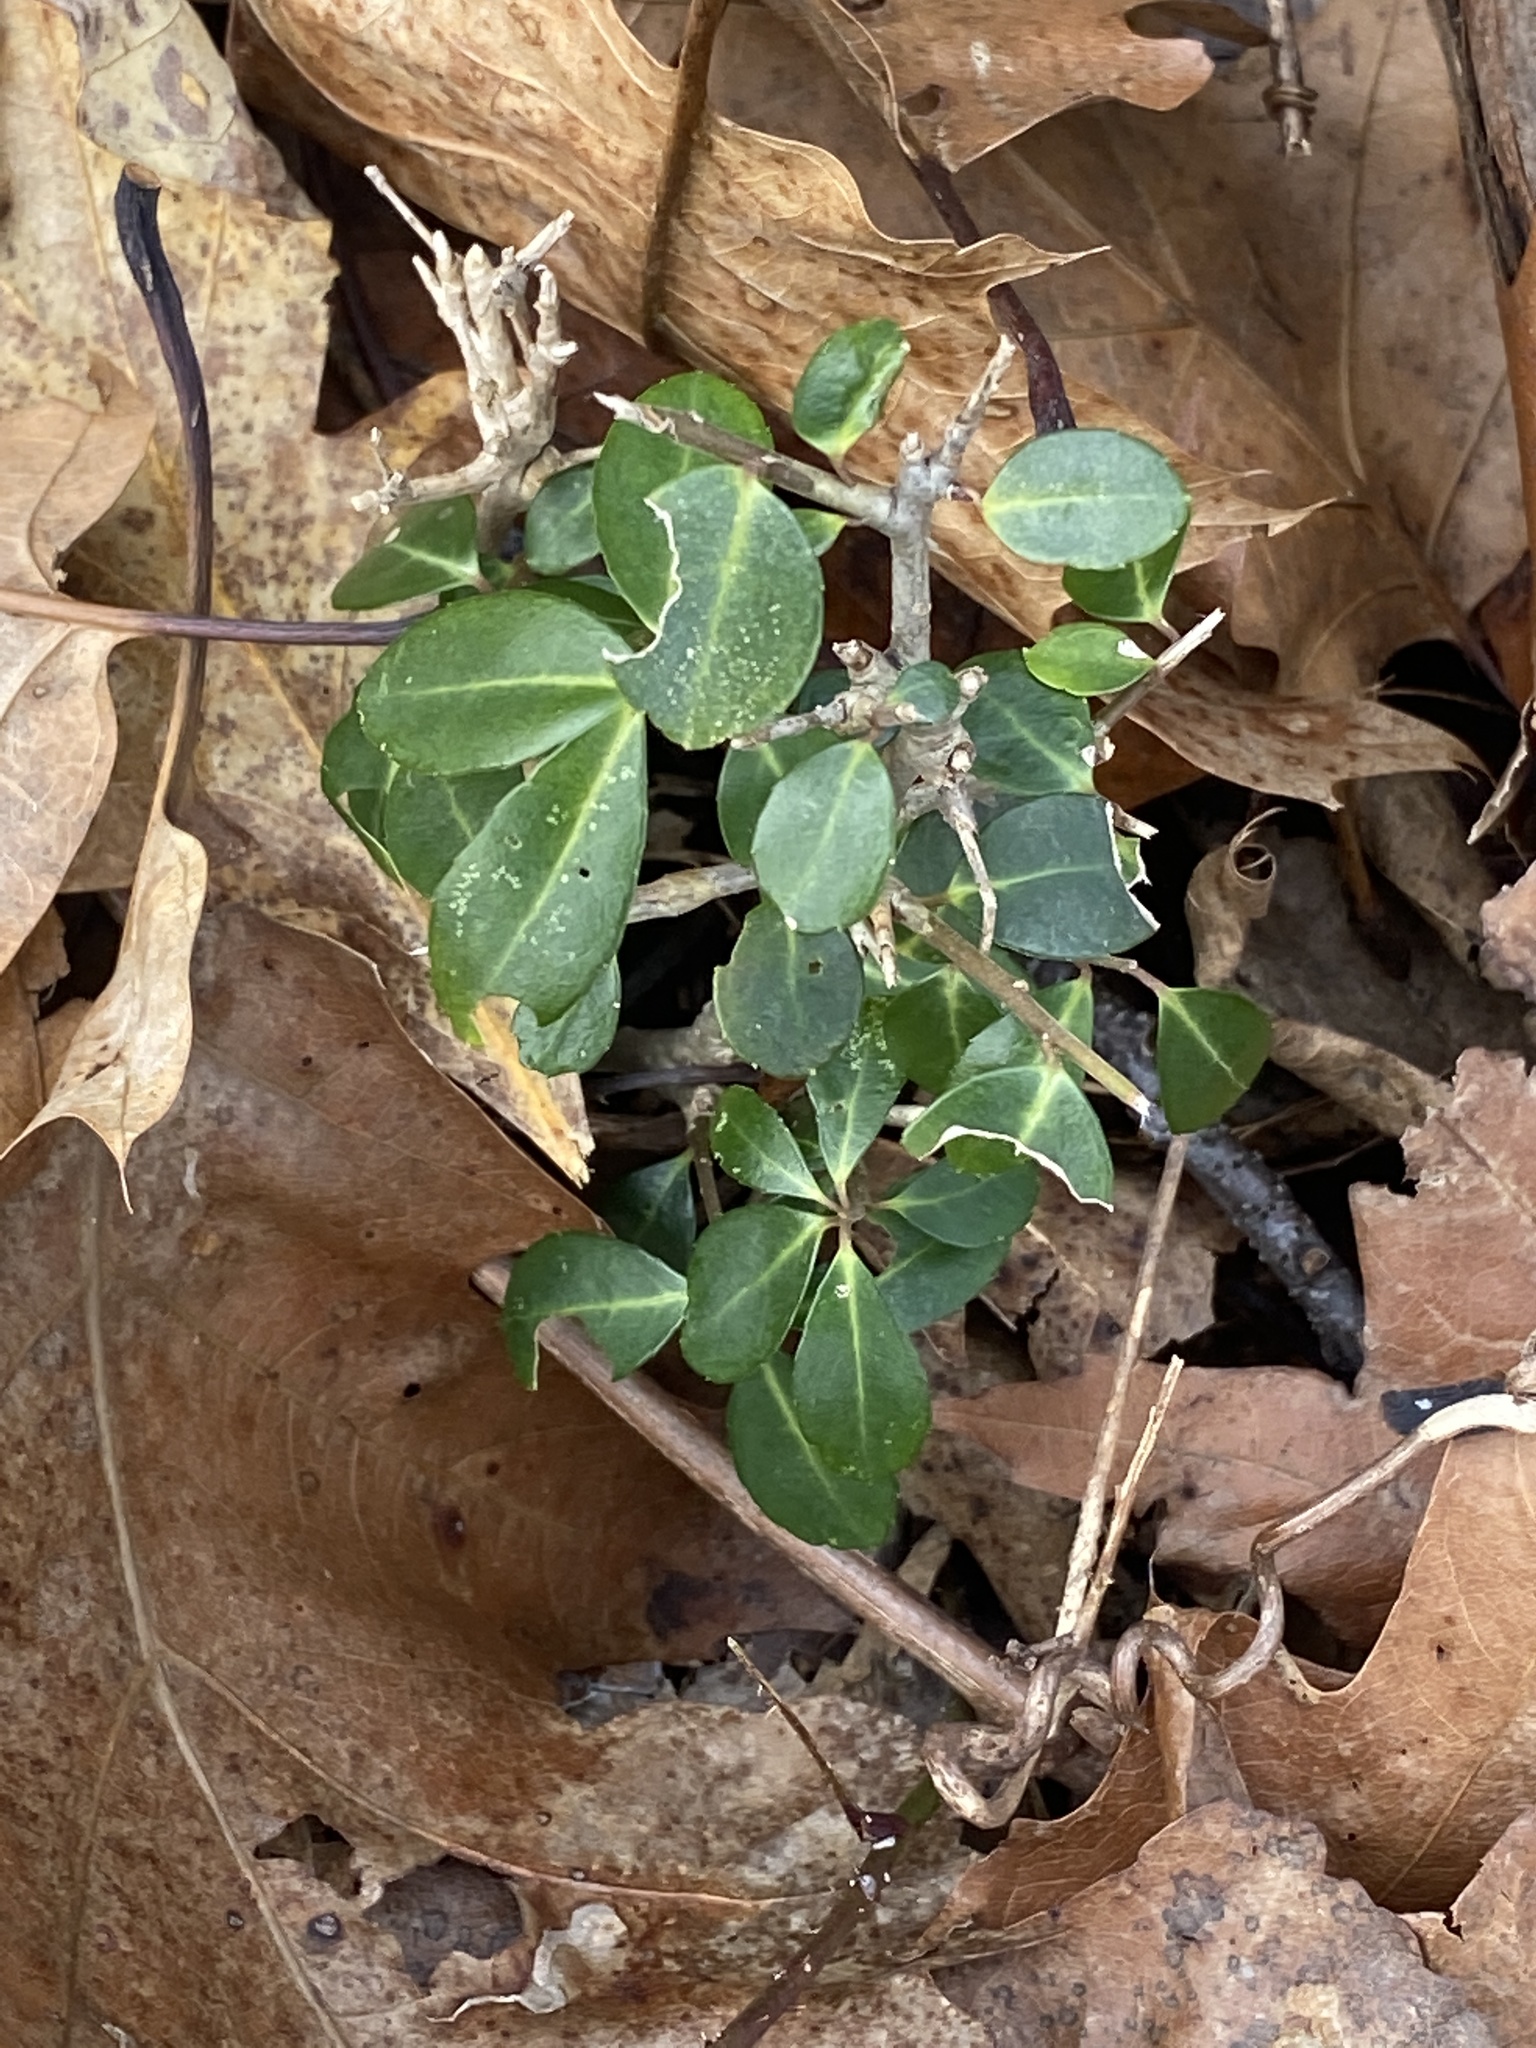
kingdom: Plantae
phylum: Tracheophyta
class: Magnoliopsida
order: Aquifoliales
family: Aquifoliaceae
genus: Ilex
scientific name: Ilex crenata
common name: Japanese holly
